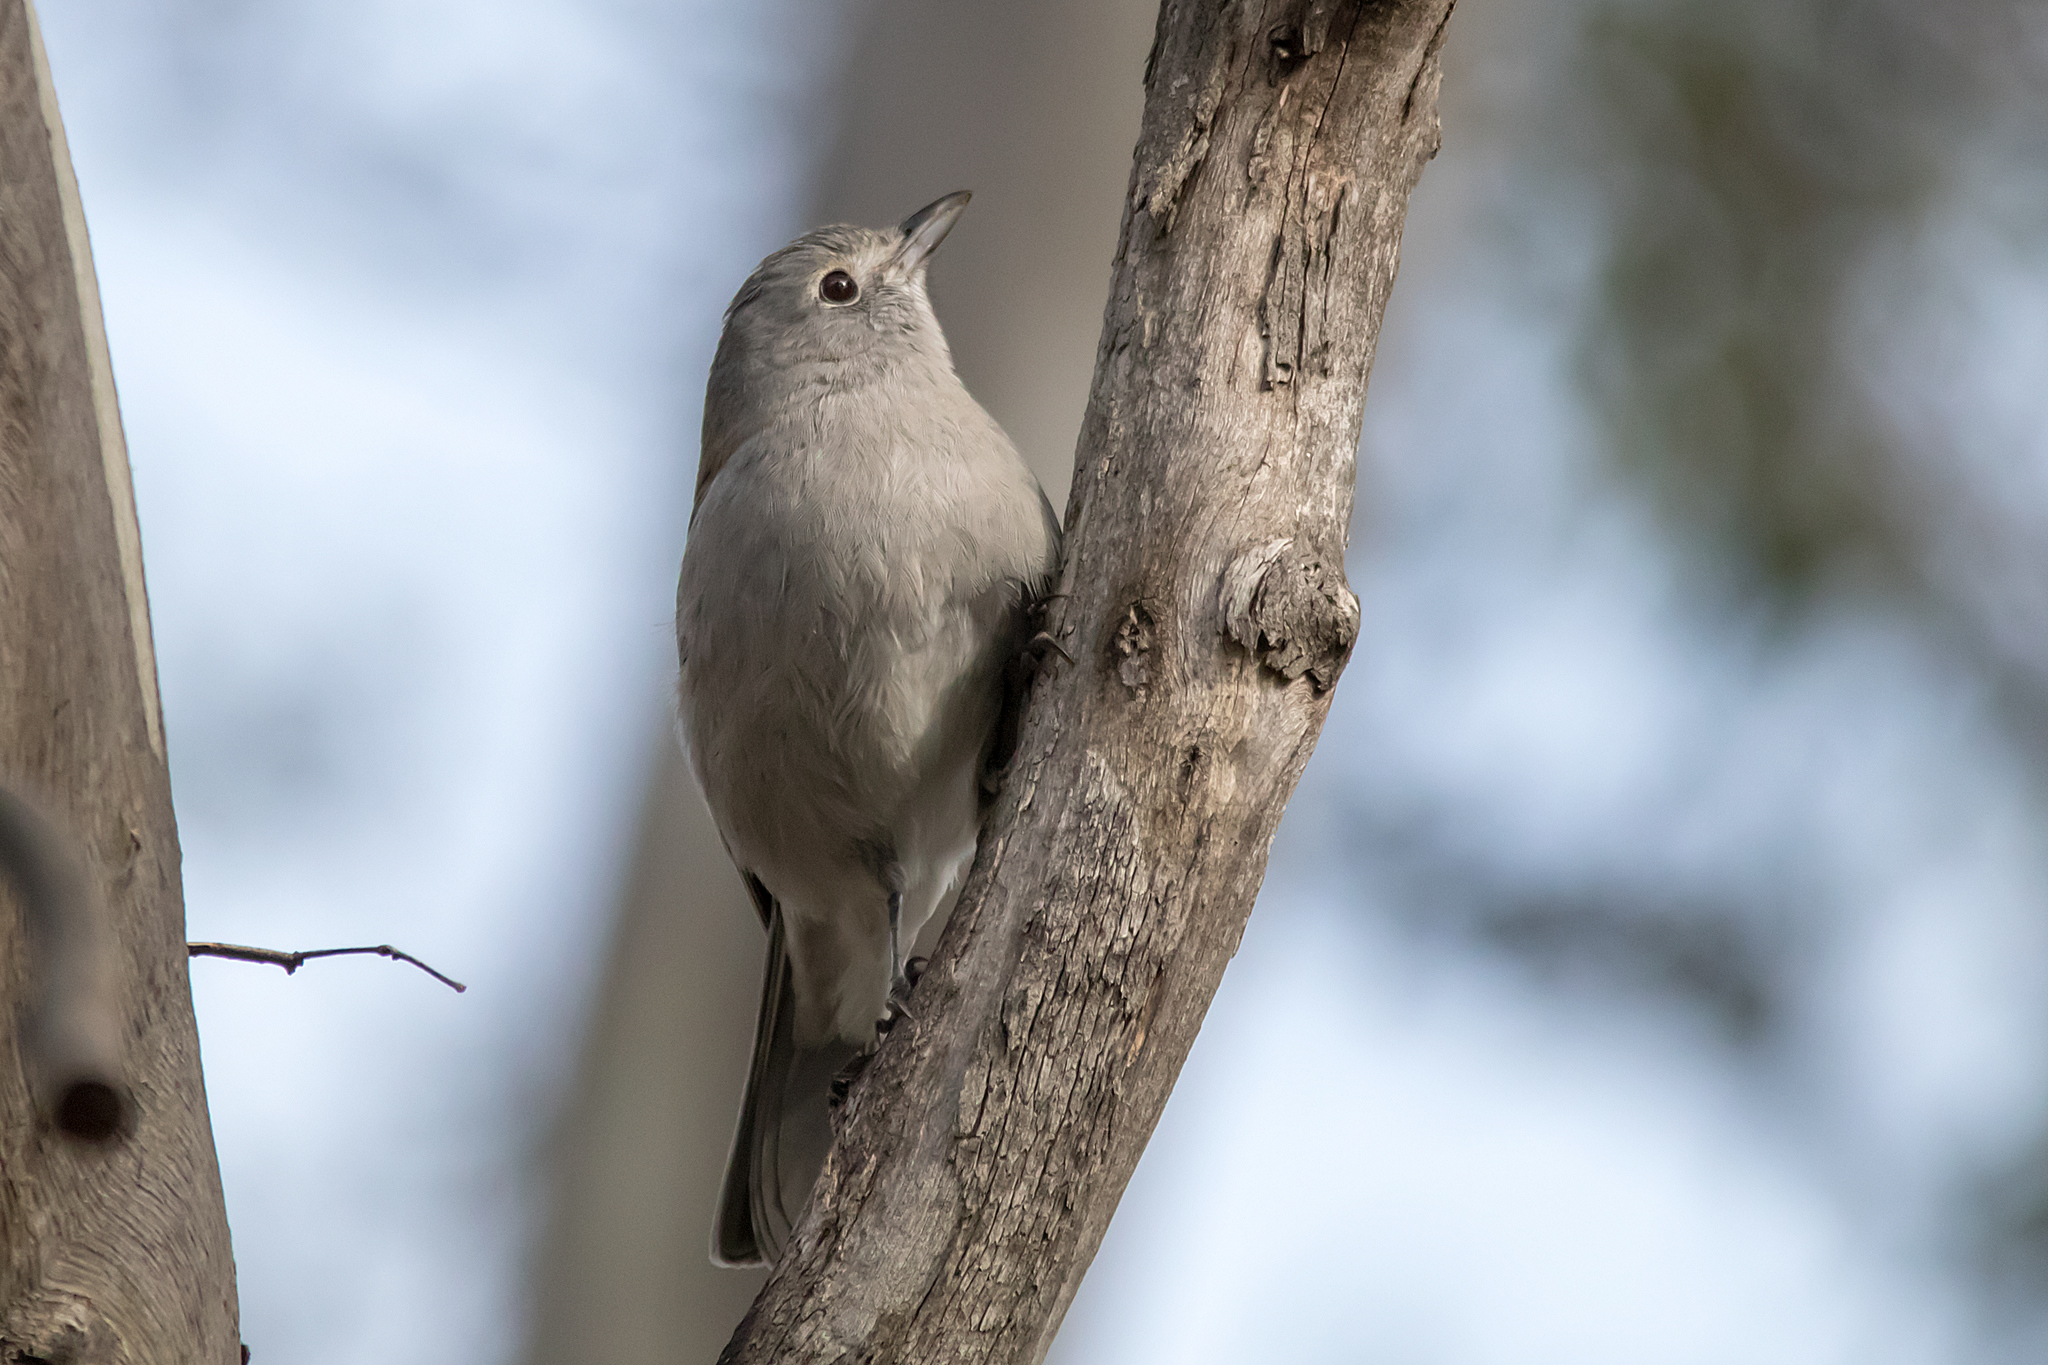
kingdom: Animalia
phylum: Chordata
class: Aves
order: Passeriformes
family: Pachycephalidae
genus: Colluricincla
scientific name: Colluricincla harmonica
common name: Grey shrikethrush
